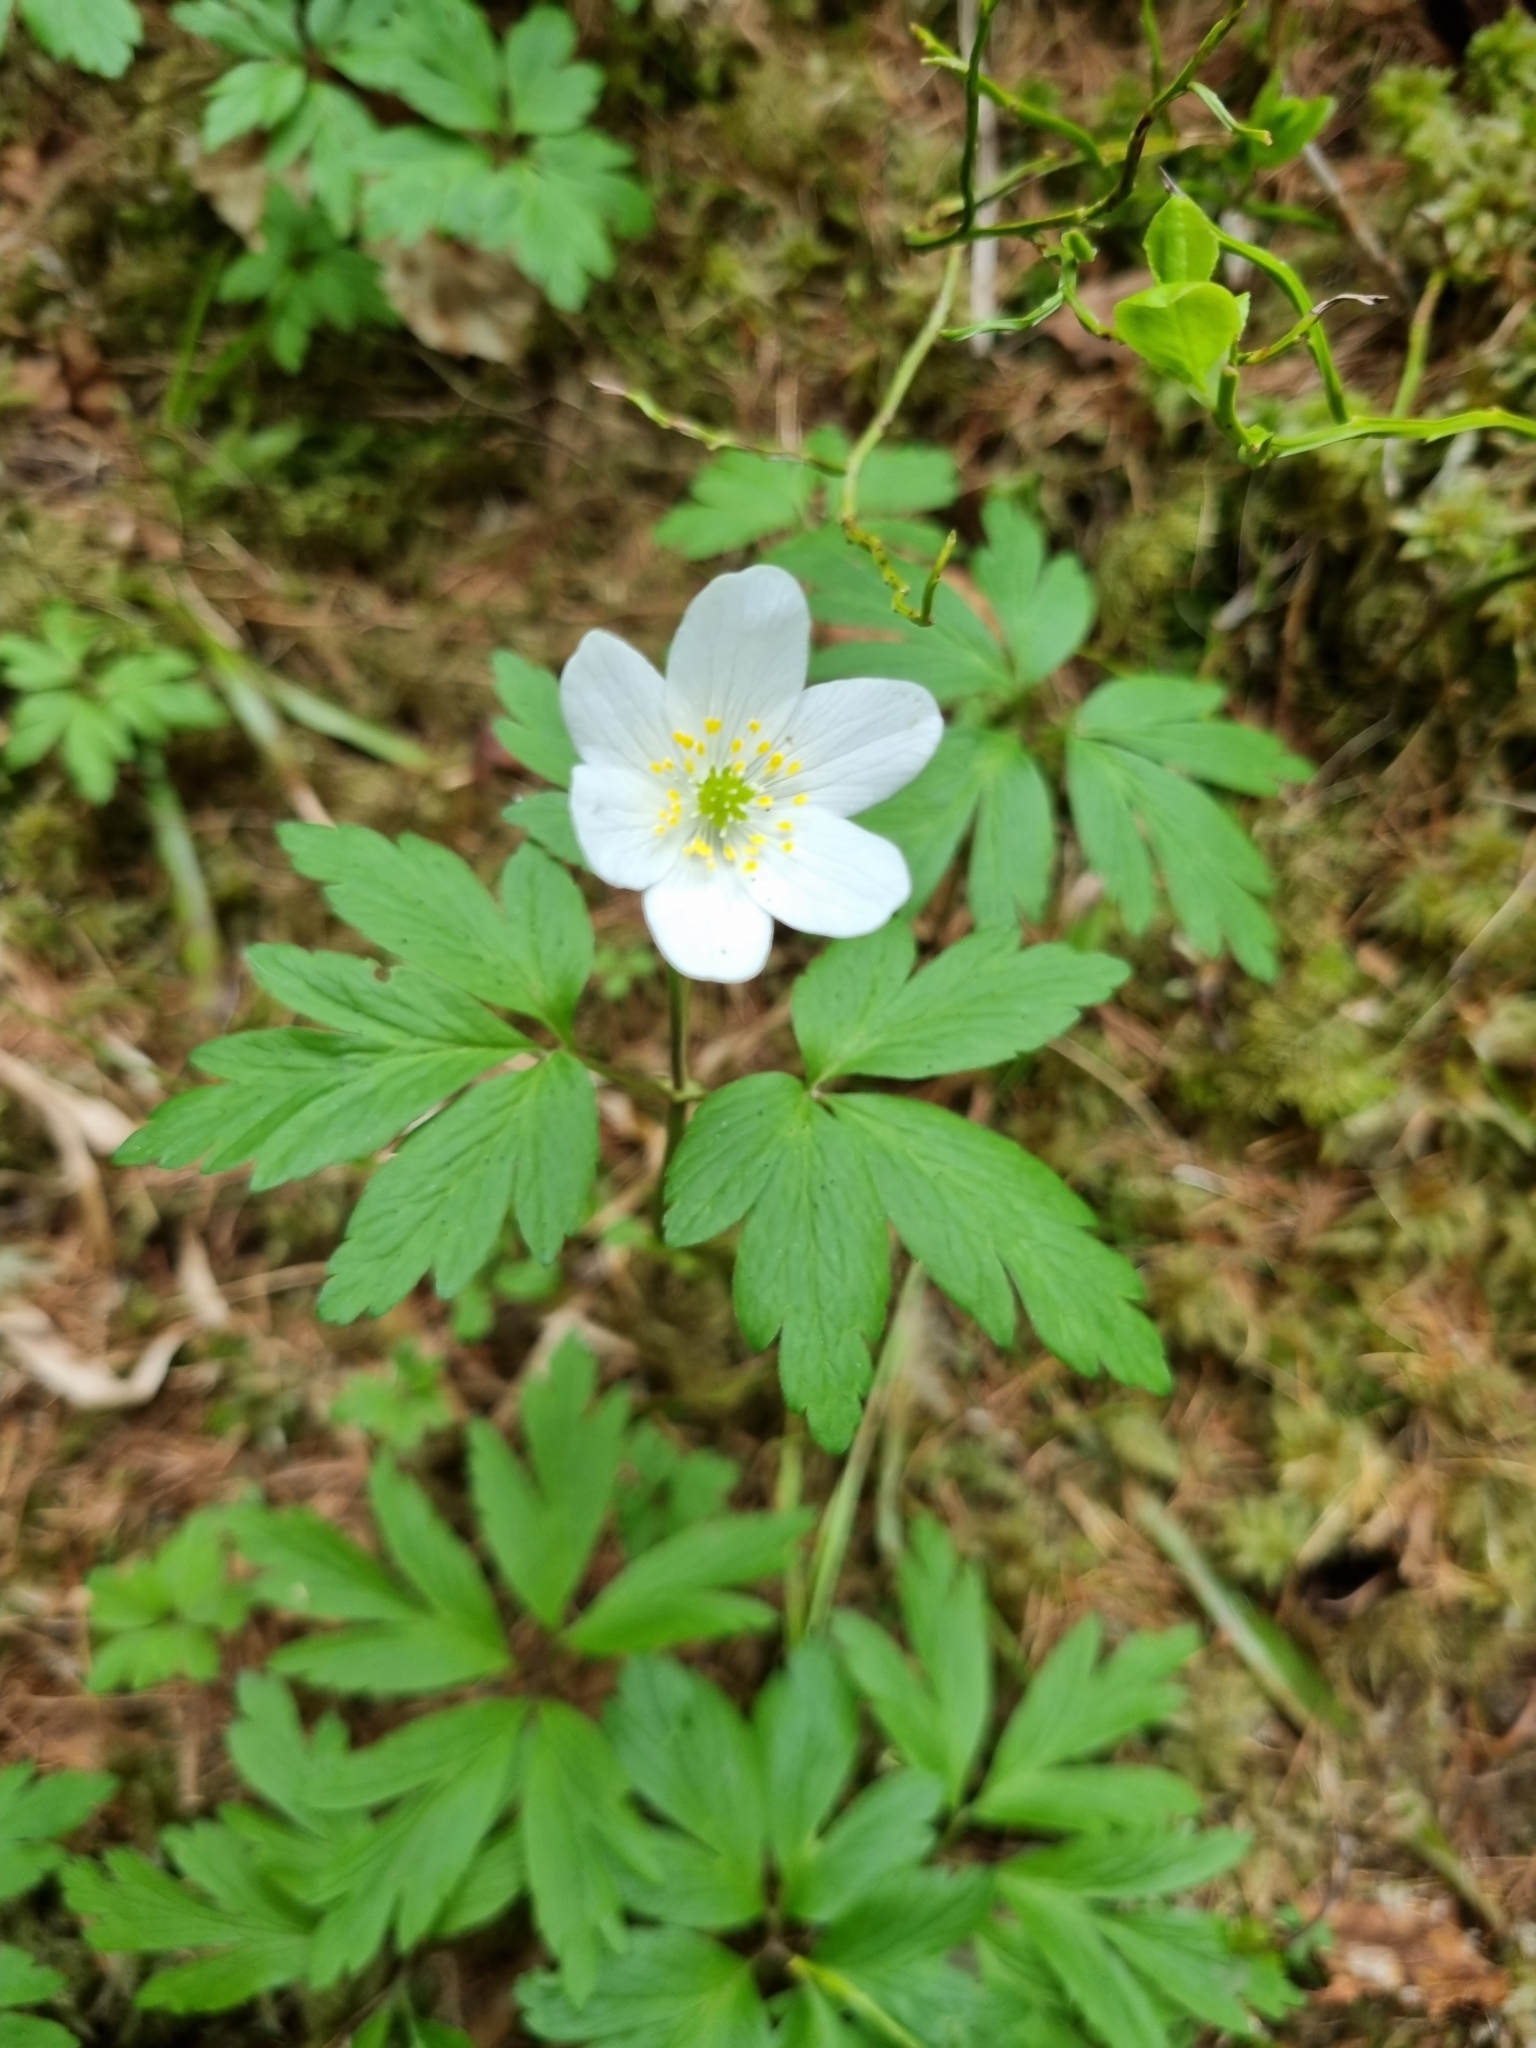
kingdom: Plantae
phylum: Tracheophyta
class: Magnoliopsida
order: Ranunculales
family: Ranunculaceae
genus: Anemone
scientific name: Anemone nemorosa
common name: Wood anemone
